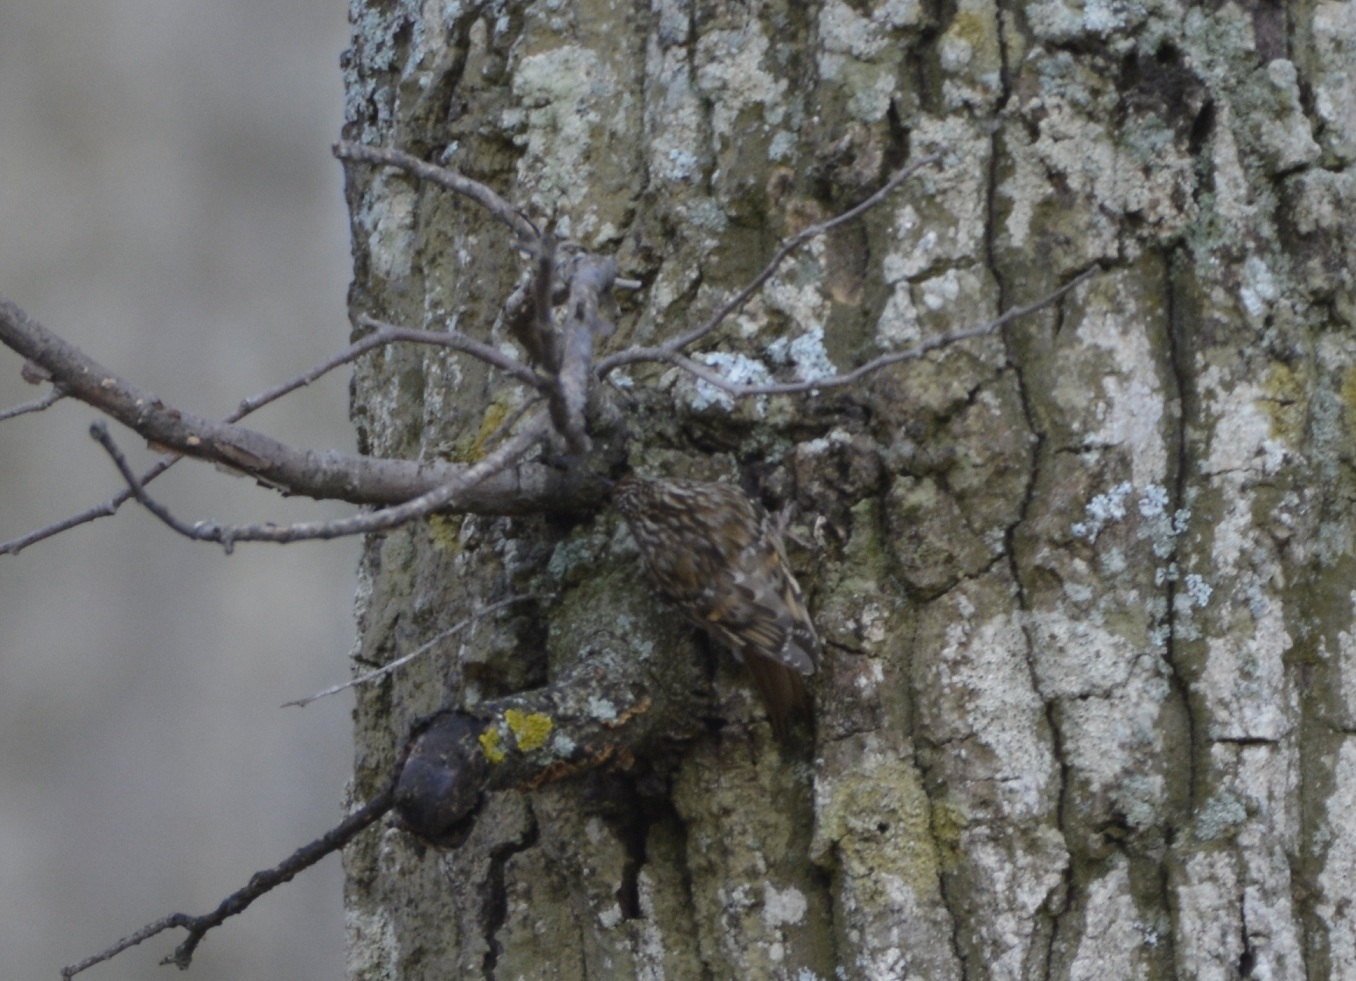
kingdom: Animalia
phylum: Chordata
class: Aves
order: Passeriformes
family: Certhiidae
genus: Certhia
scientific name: Certhia brachydactyla
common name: Short-toed treecreeper
